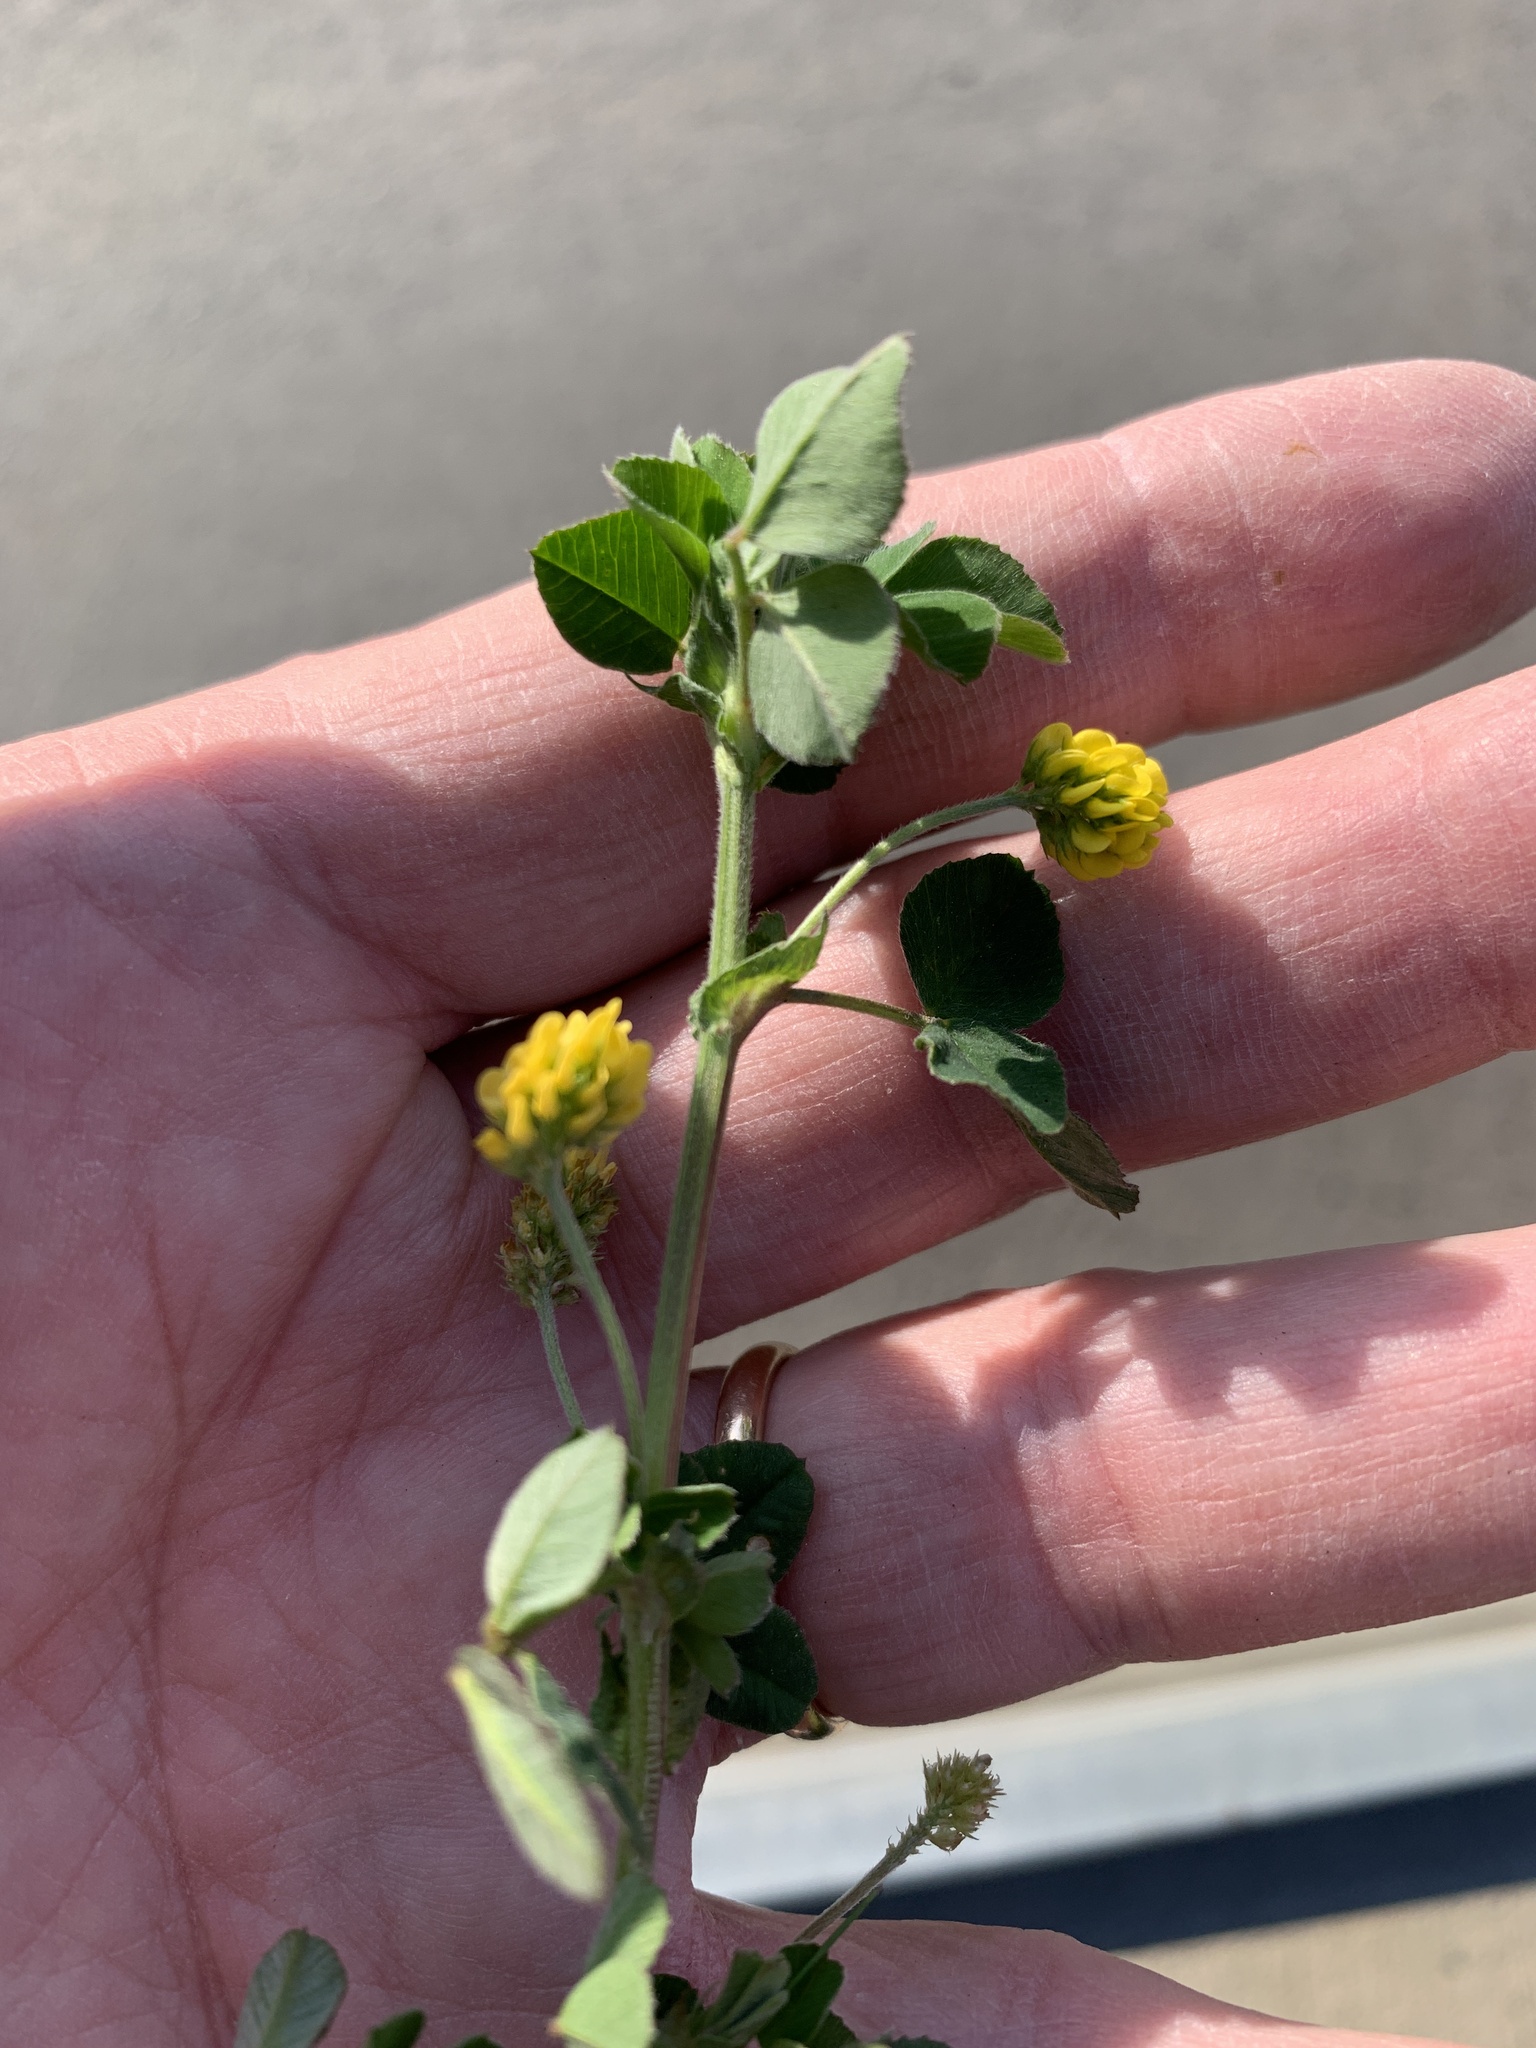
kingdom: Plantae
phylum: Tracheophyta
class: Magnoliopsida
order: Fabales
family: Fabaceae
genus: Medicago
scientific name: Medicago falcata
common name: Sickle medick
